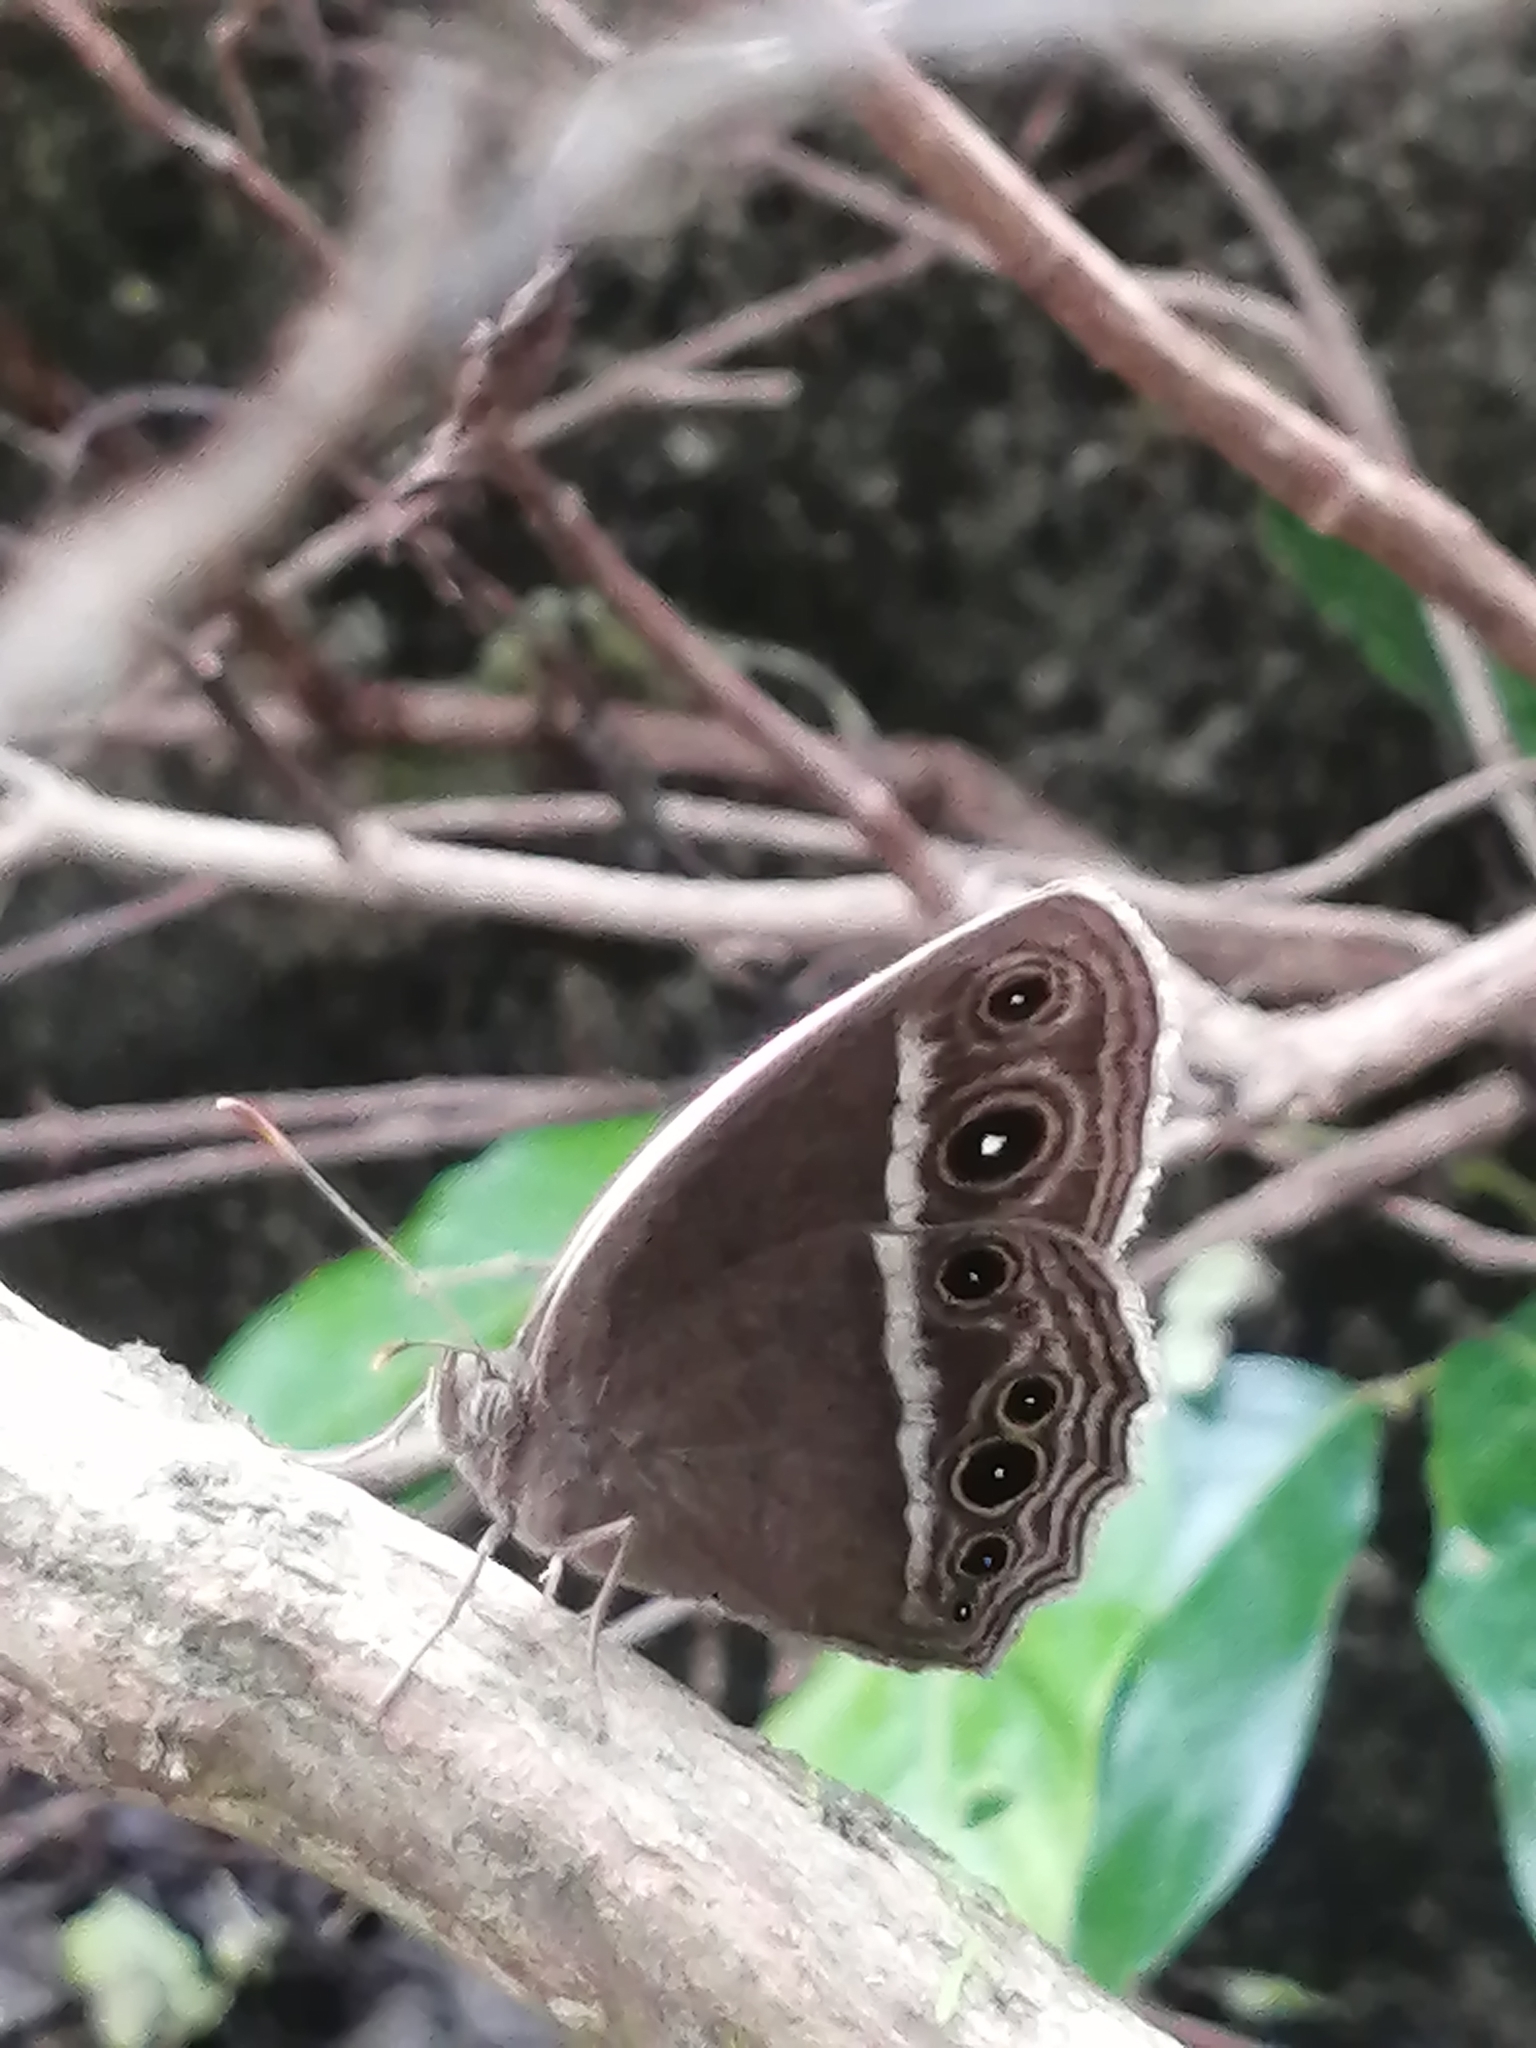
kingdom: Animalia
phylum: Arthropoda
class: Insecta
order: Lepidoptera
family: Nymphalidae
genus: Mycalesis
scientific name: Mycalesis mineus
